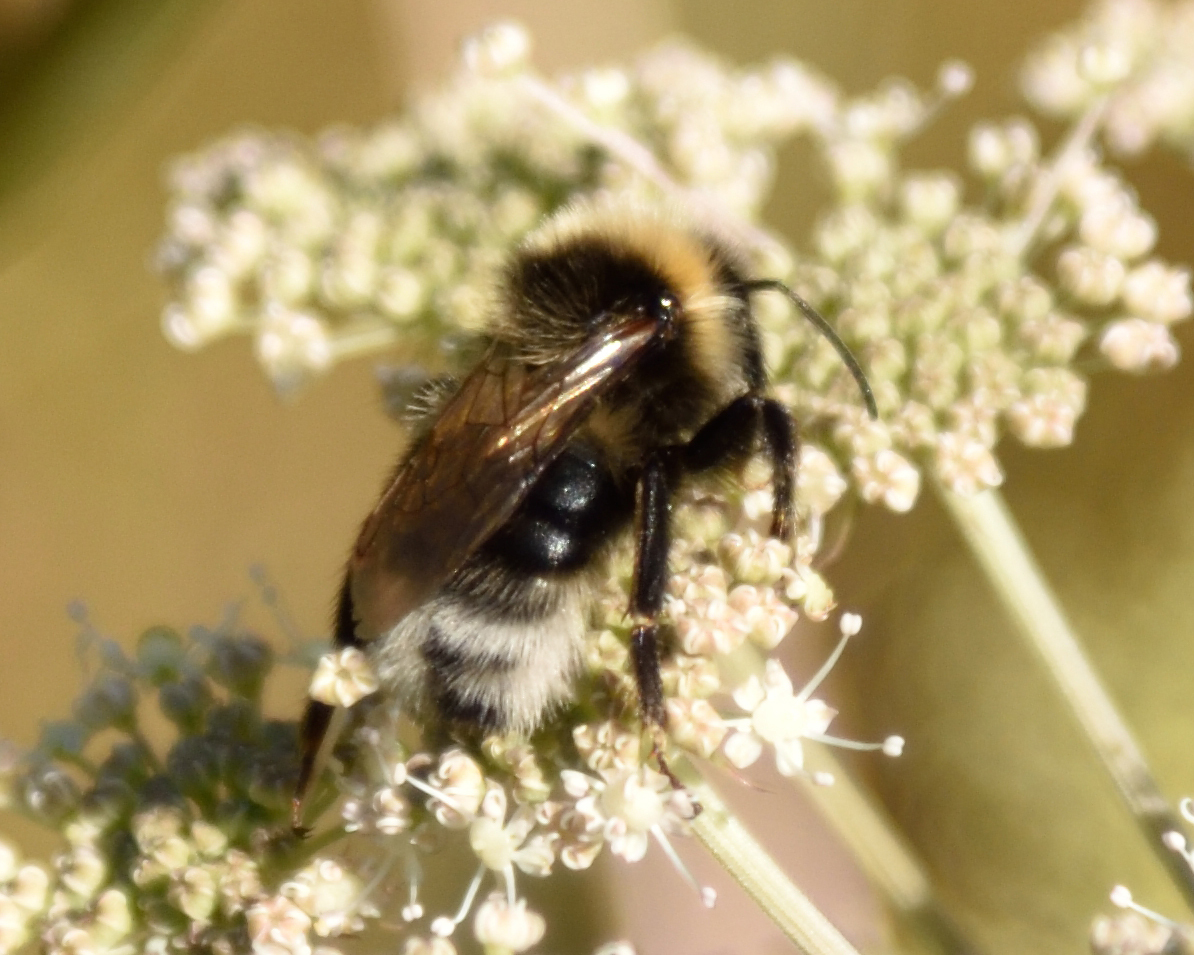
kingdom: Animalia
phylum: Arthropoda
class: Insecta
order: Hymenoptera
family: Apidae
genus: Bombus
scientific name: Bombus
